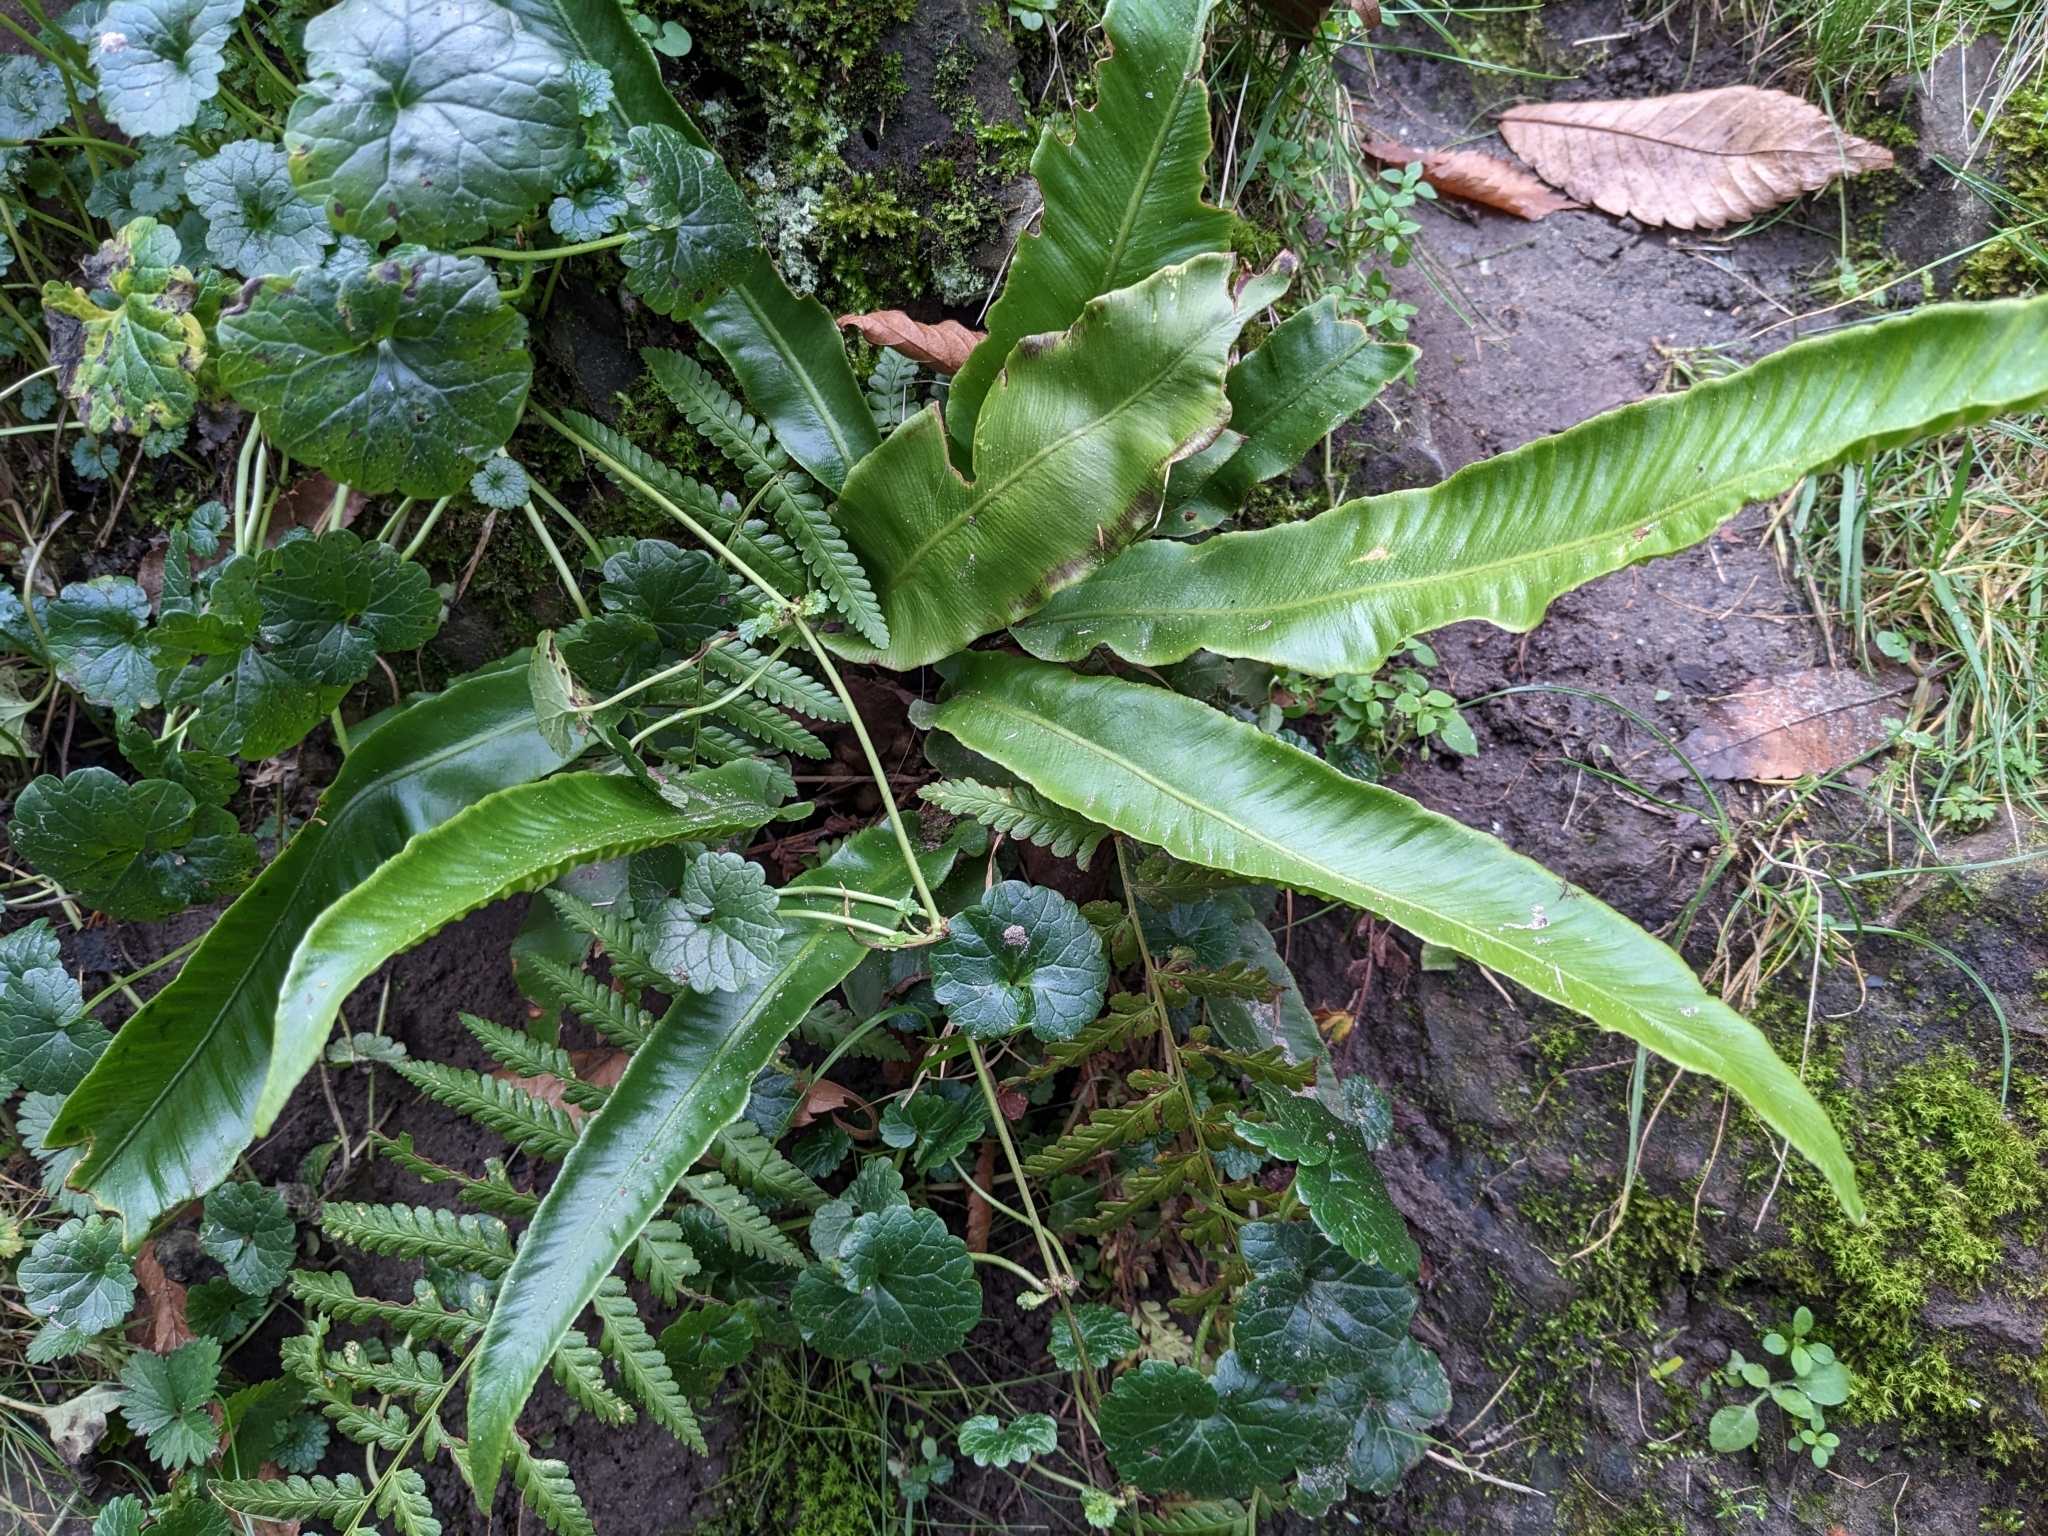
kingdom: Plantae
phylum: Tracheophyta
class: Polypodiopsida
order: Polypodiales
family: Aspleniaceae
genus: Asplenium
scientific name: Asplenium scolopendrium
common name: Hart's-tongue fern
